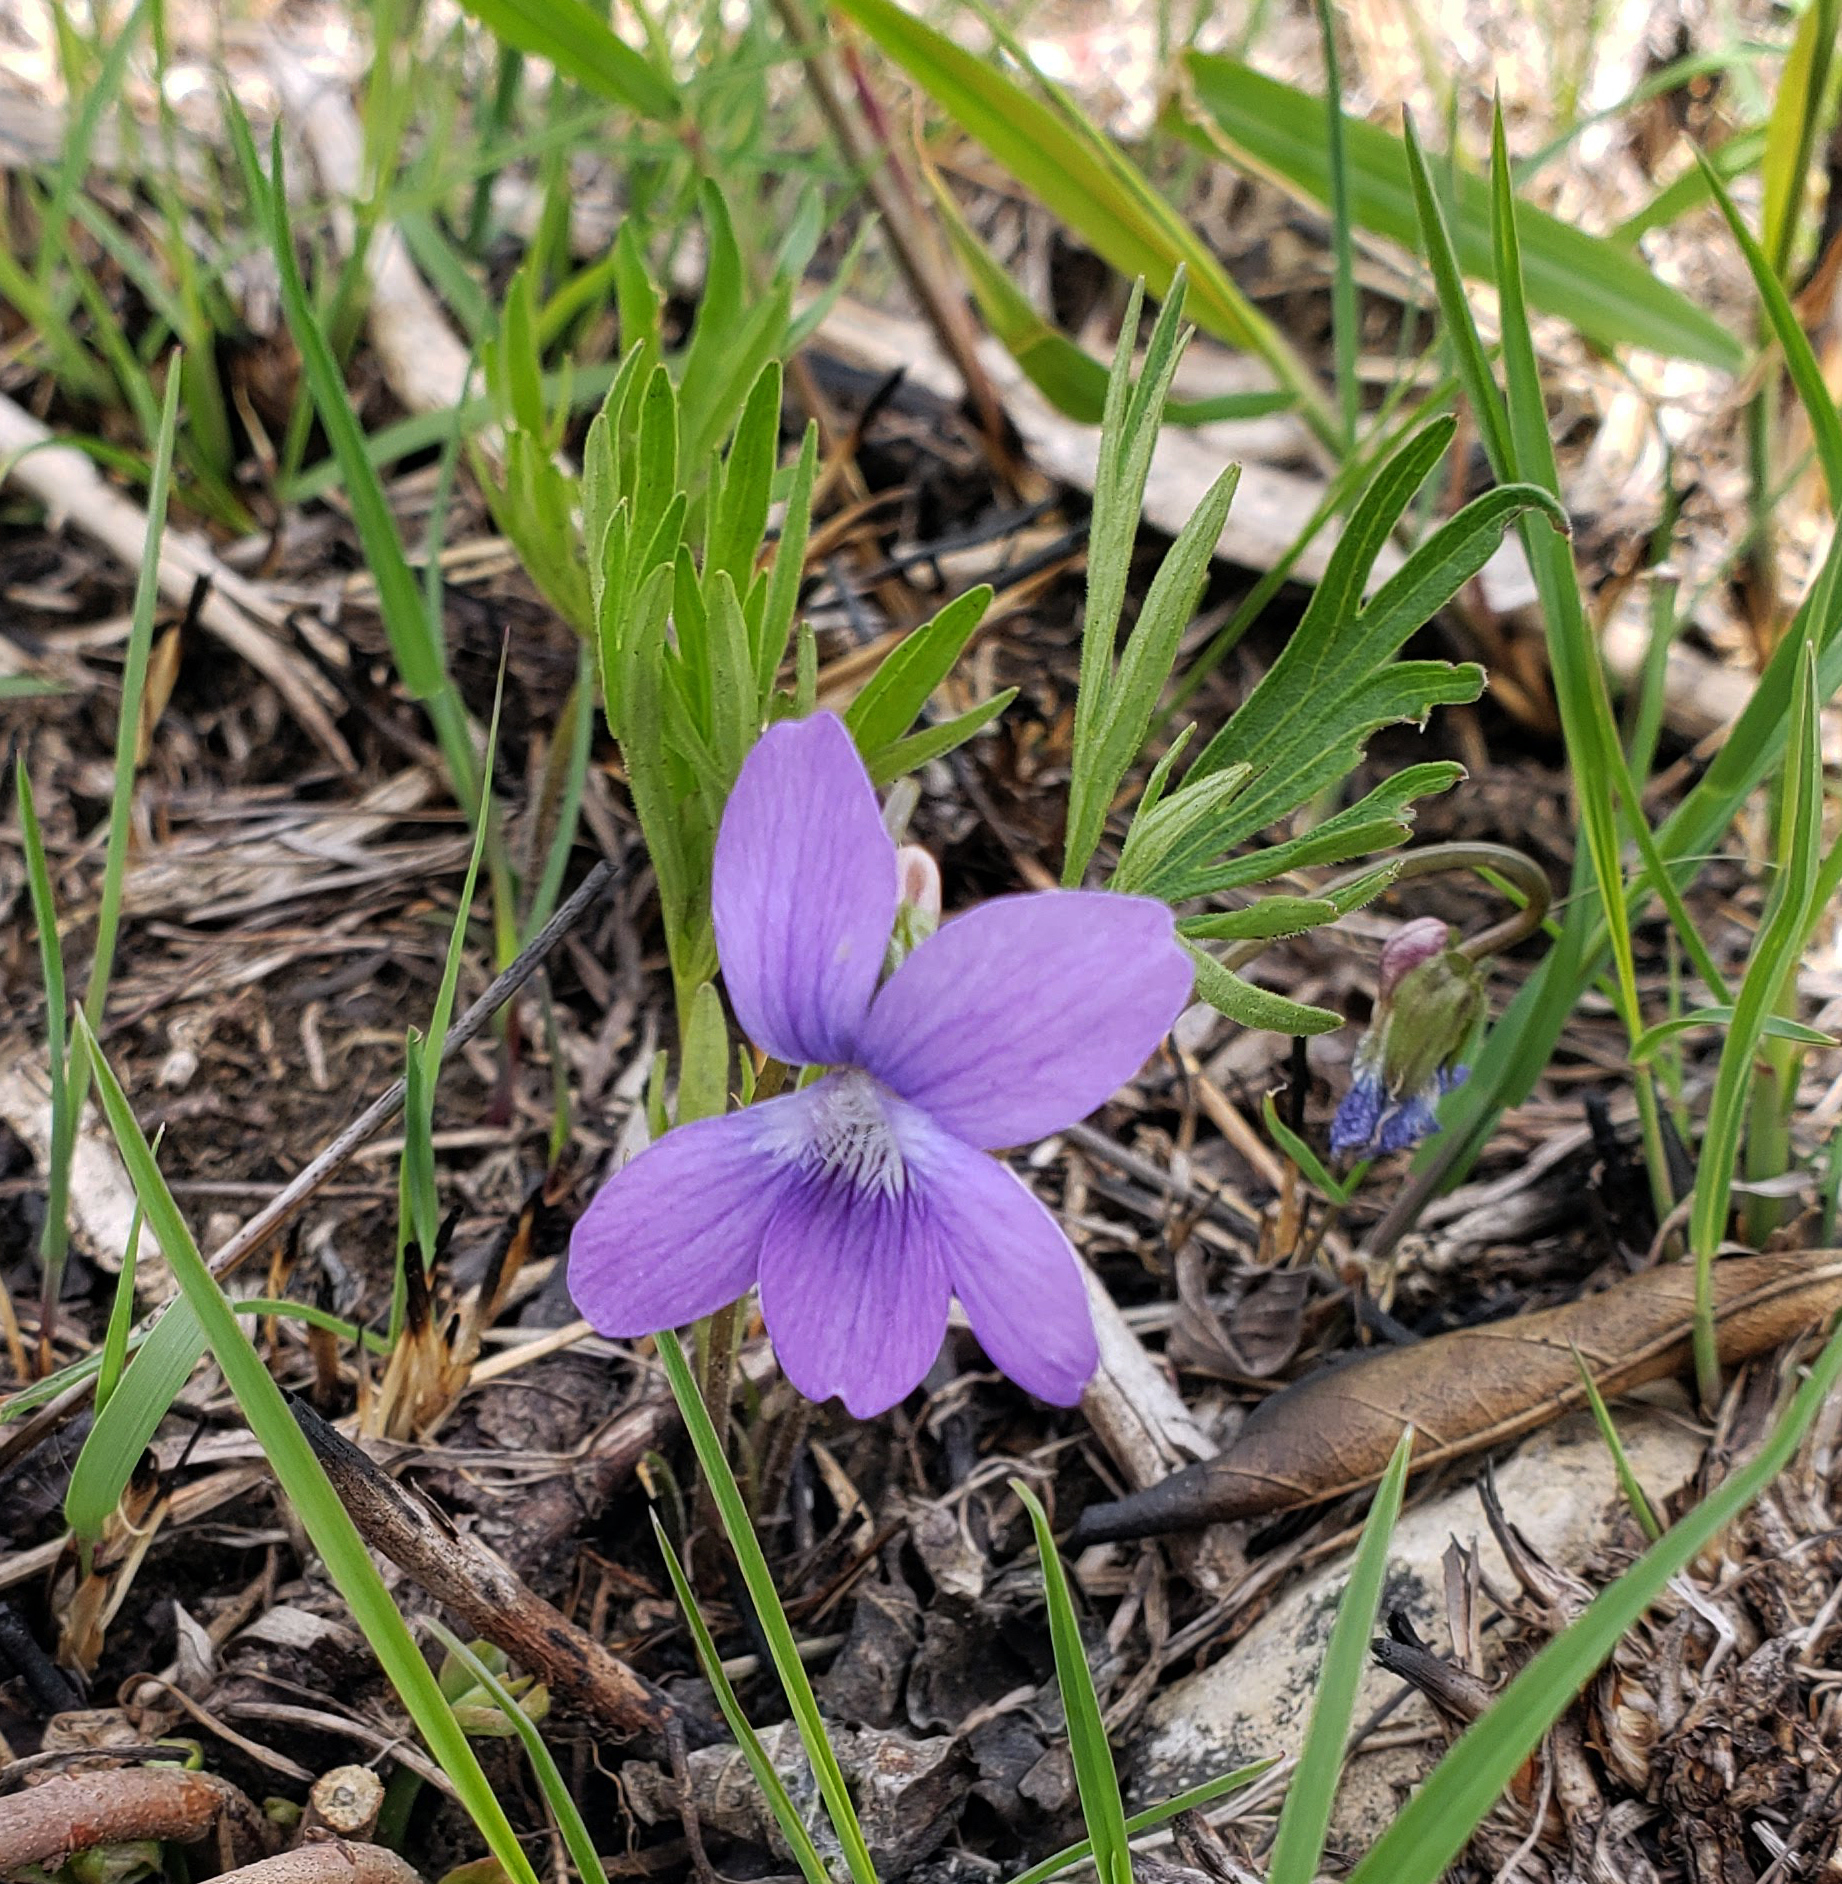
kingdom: Plantae
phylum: Tracheophyta
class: Magnoliopsida
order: Malpighiales
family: Violaceae
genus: Viola
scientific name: Viola pedatifida
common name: Prairie violet
